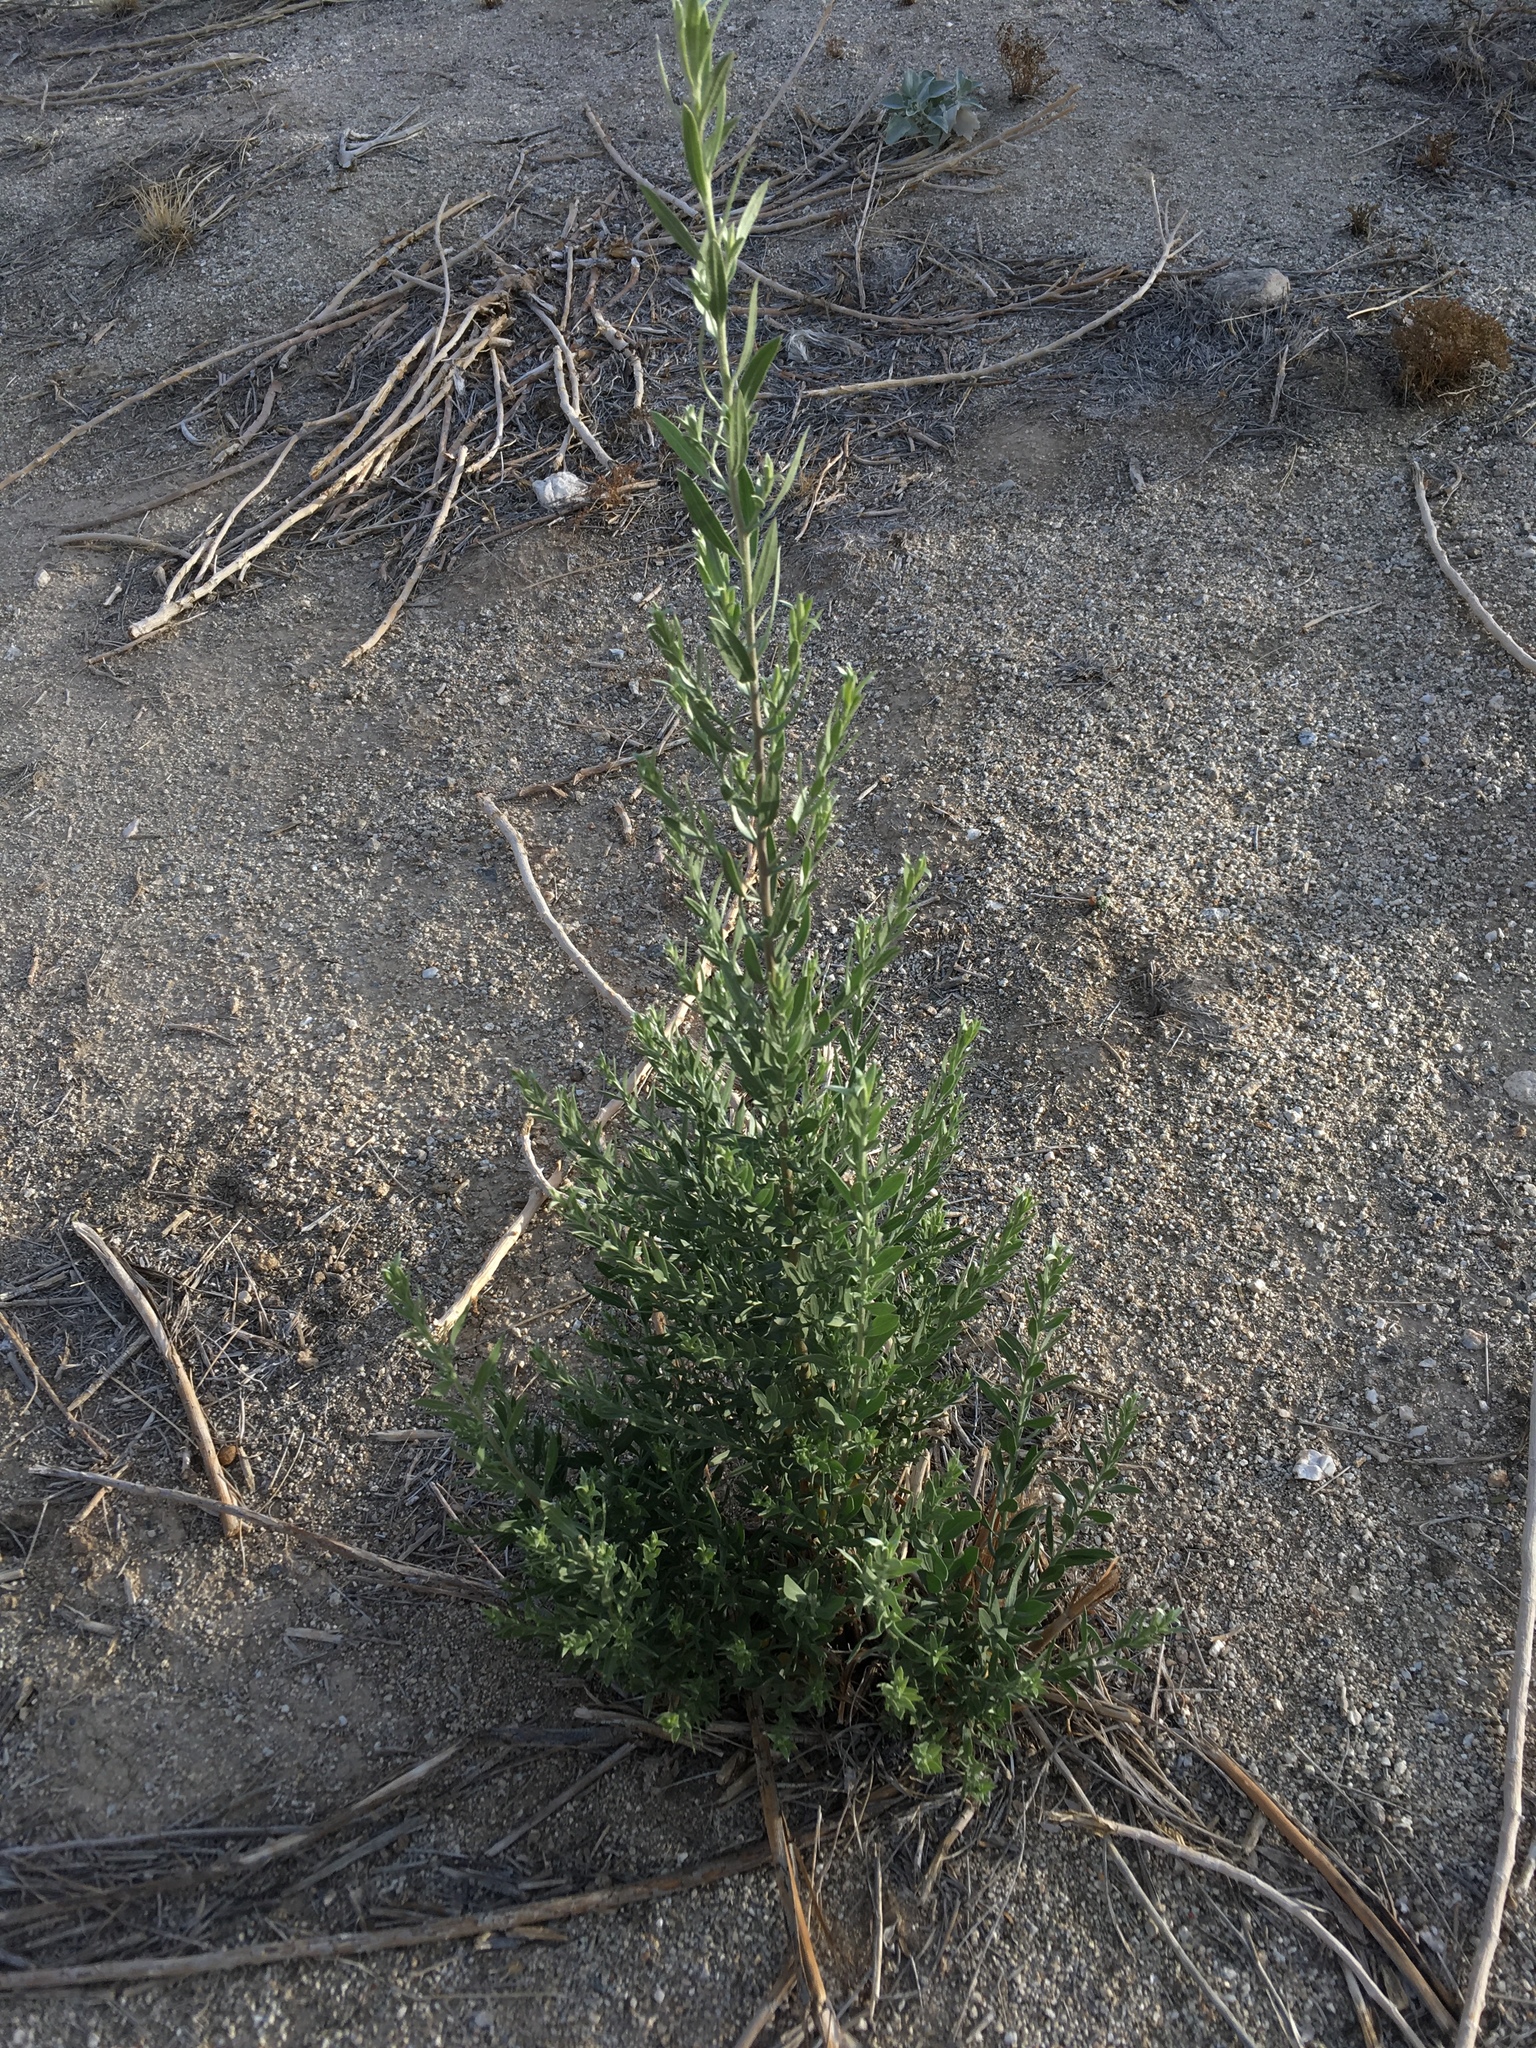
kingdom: Plantae
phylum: Tracheophyta
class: Magnoliopsida
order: Asterales
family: Asteraceae
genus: Pluchea
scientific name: Pluchea sericea
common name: Arrow-weed
